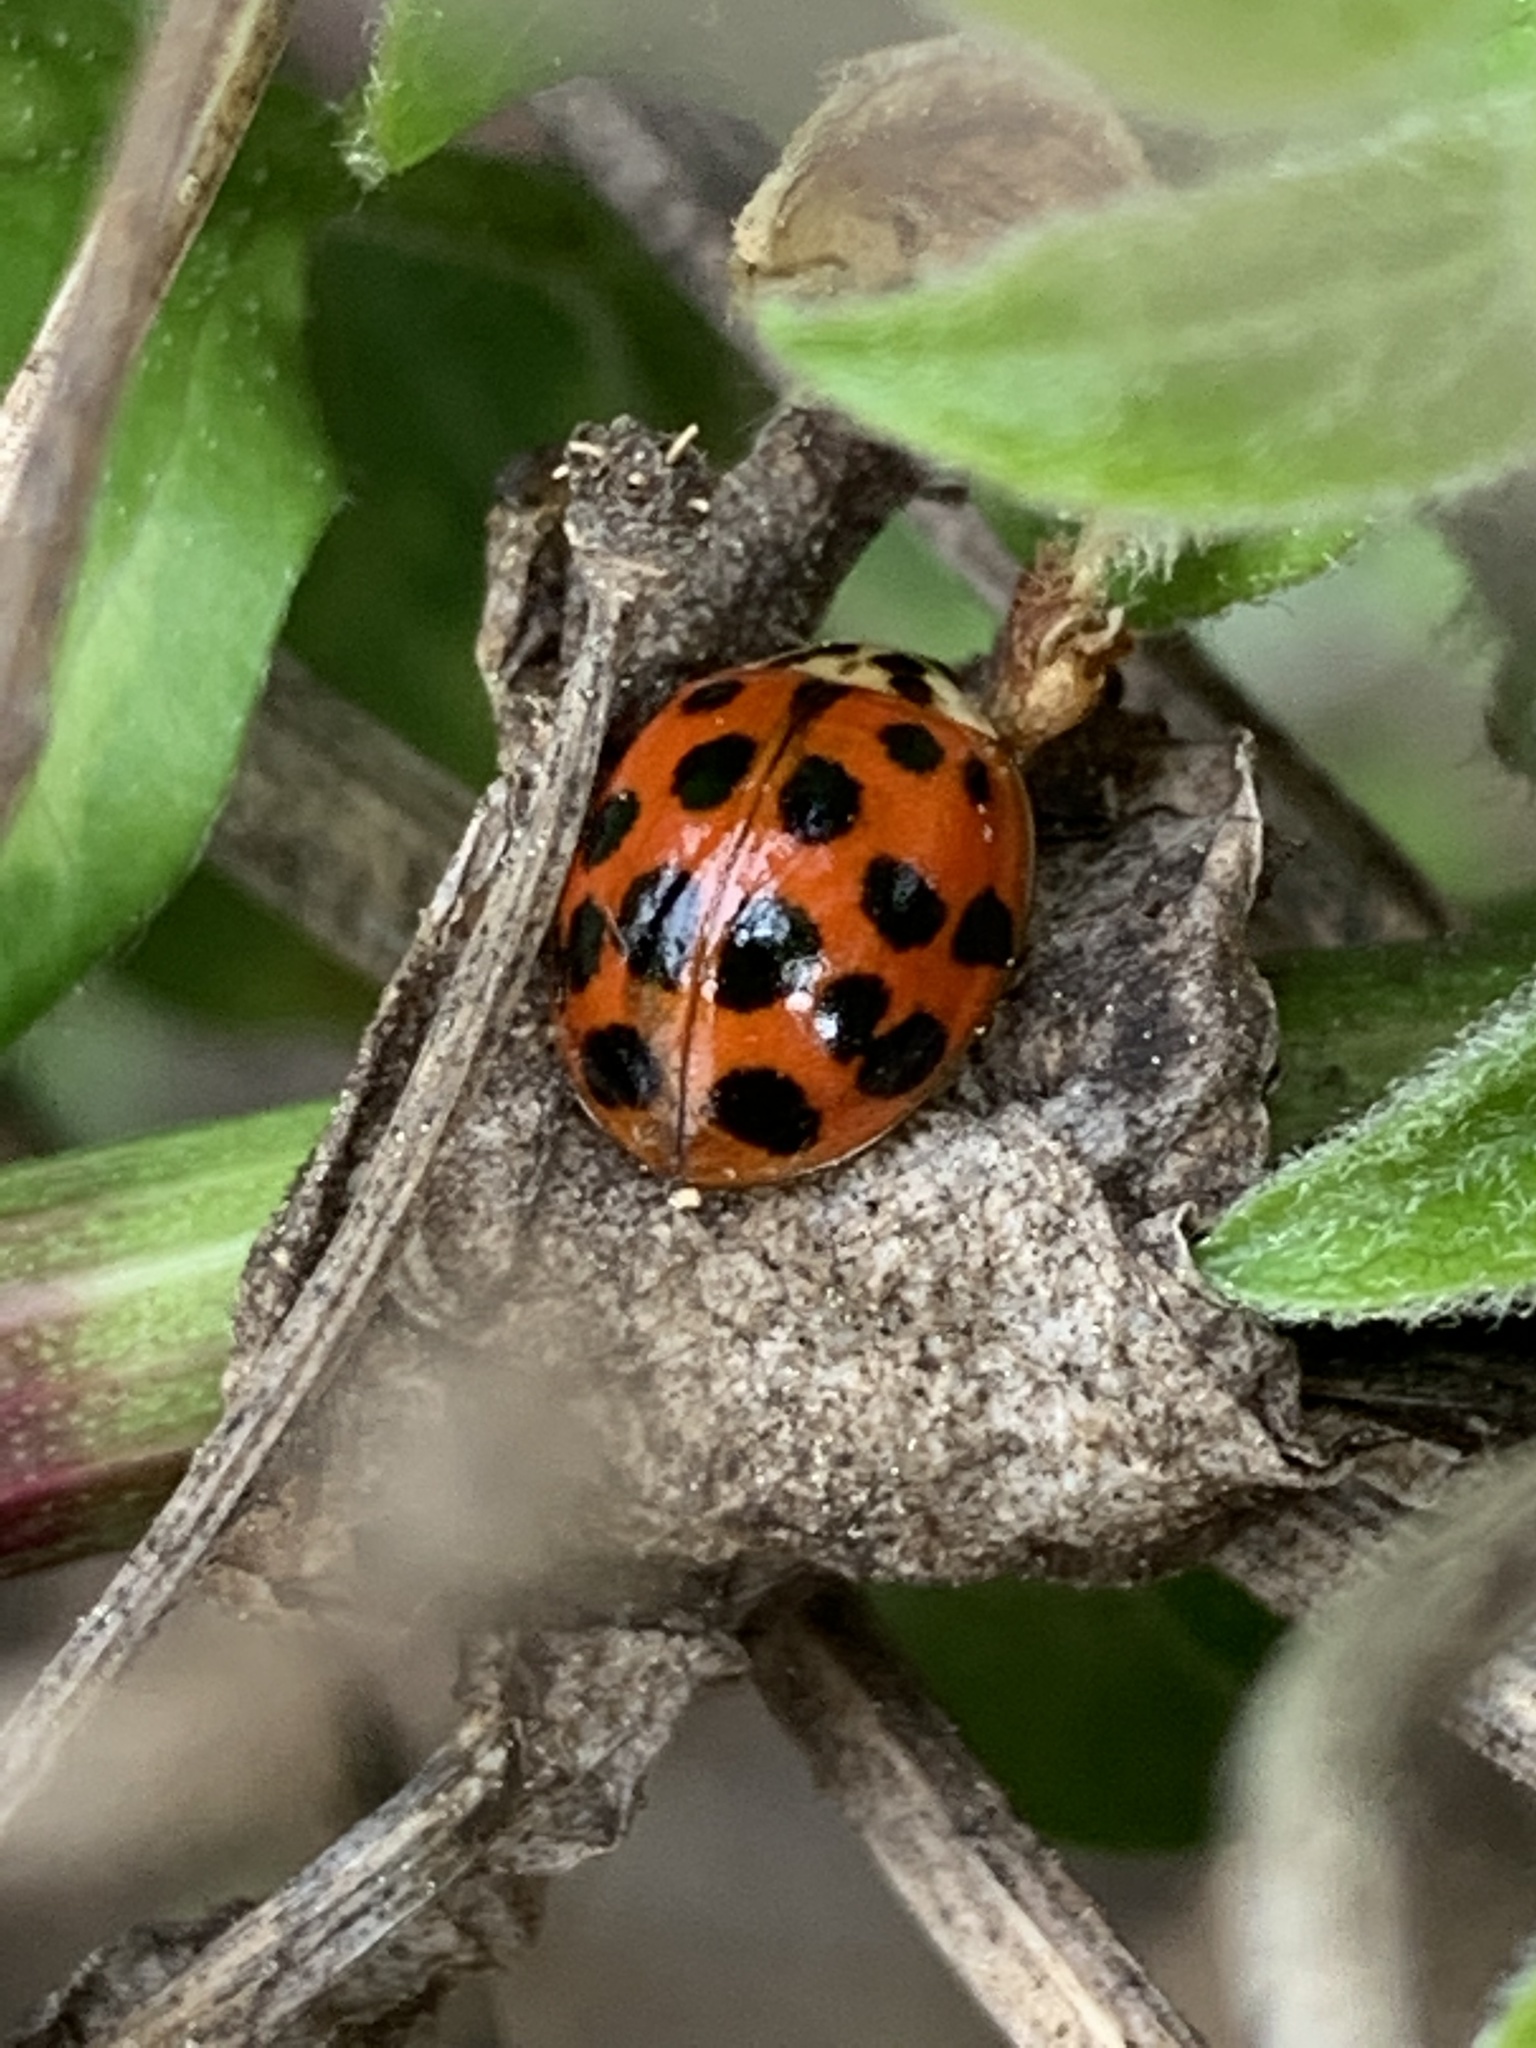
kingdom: Animalia
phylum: Arthropoda
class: Insecta
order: Coleoptera
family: Coccinellidae
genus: Harmonia
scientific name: Harmonia axyridis
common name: Harlequin ladybird
